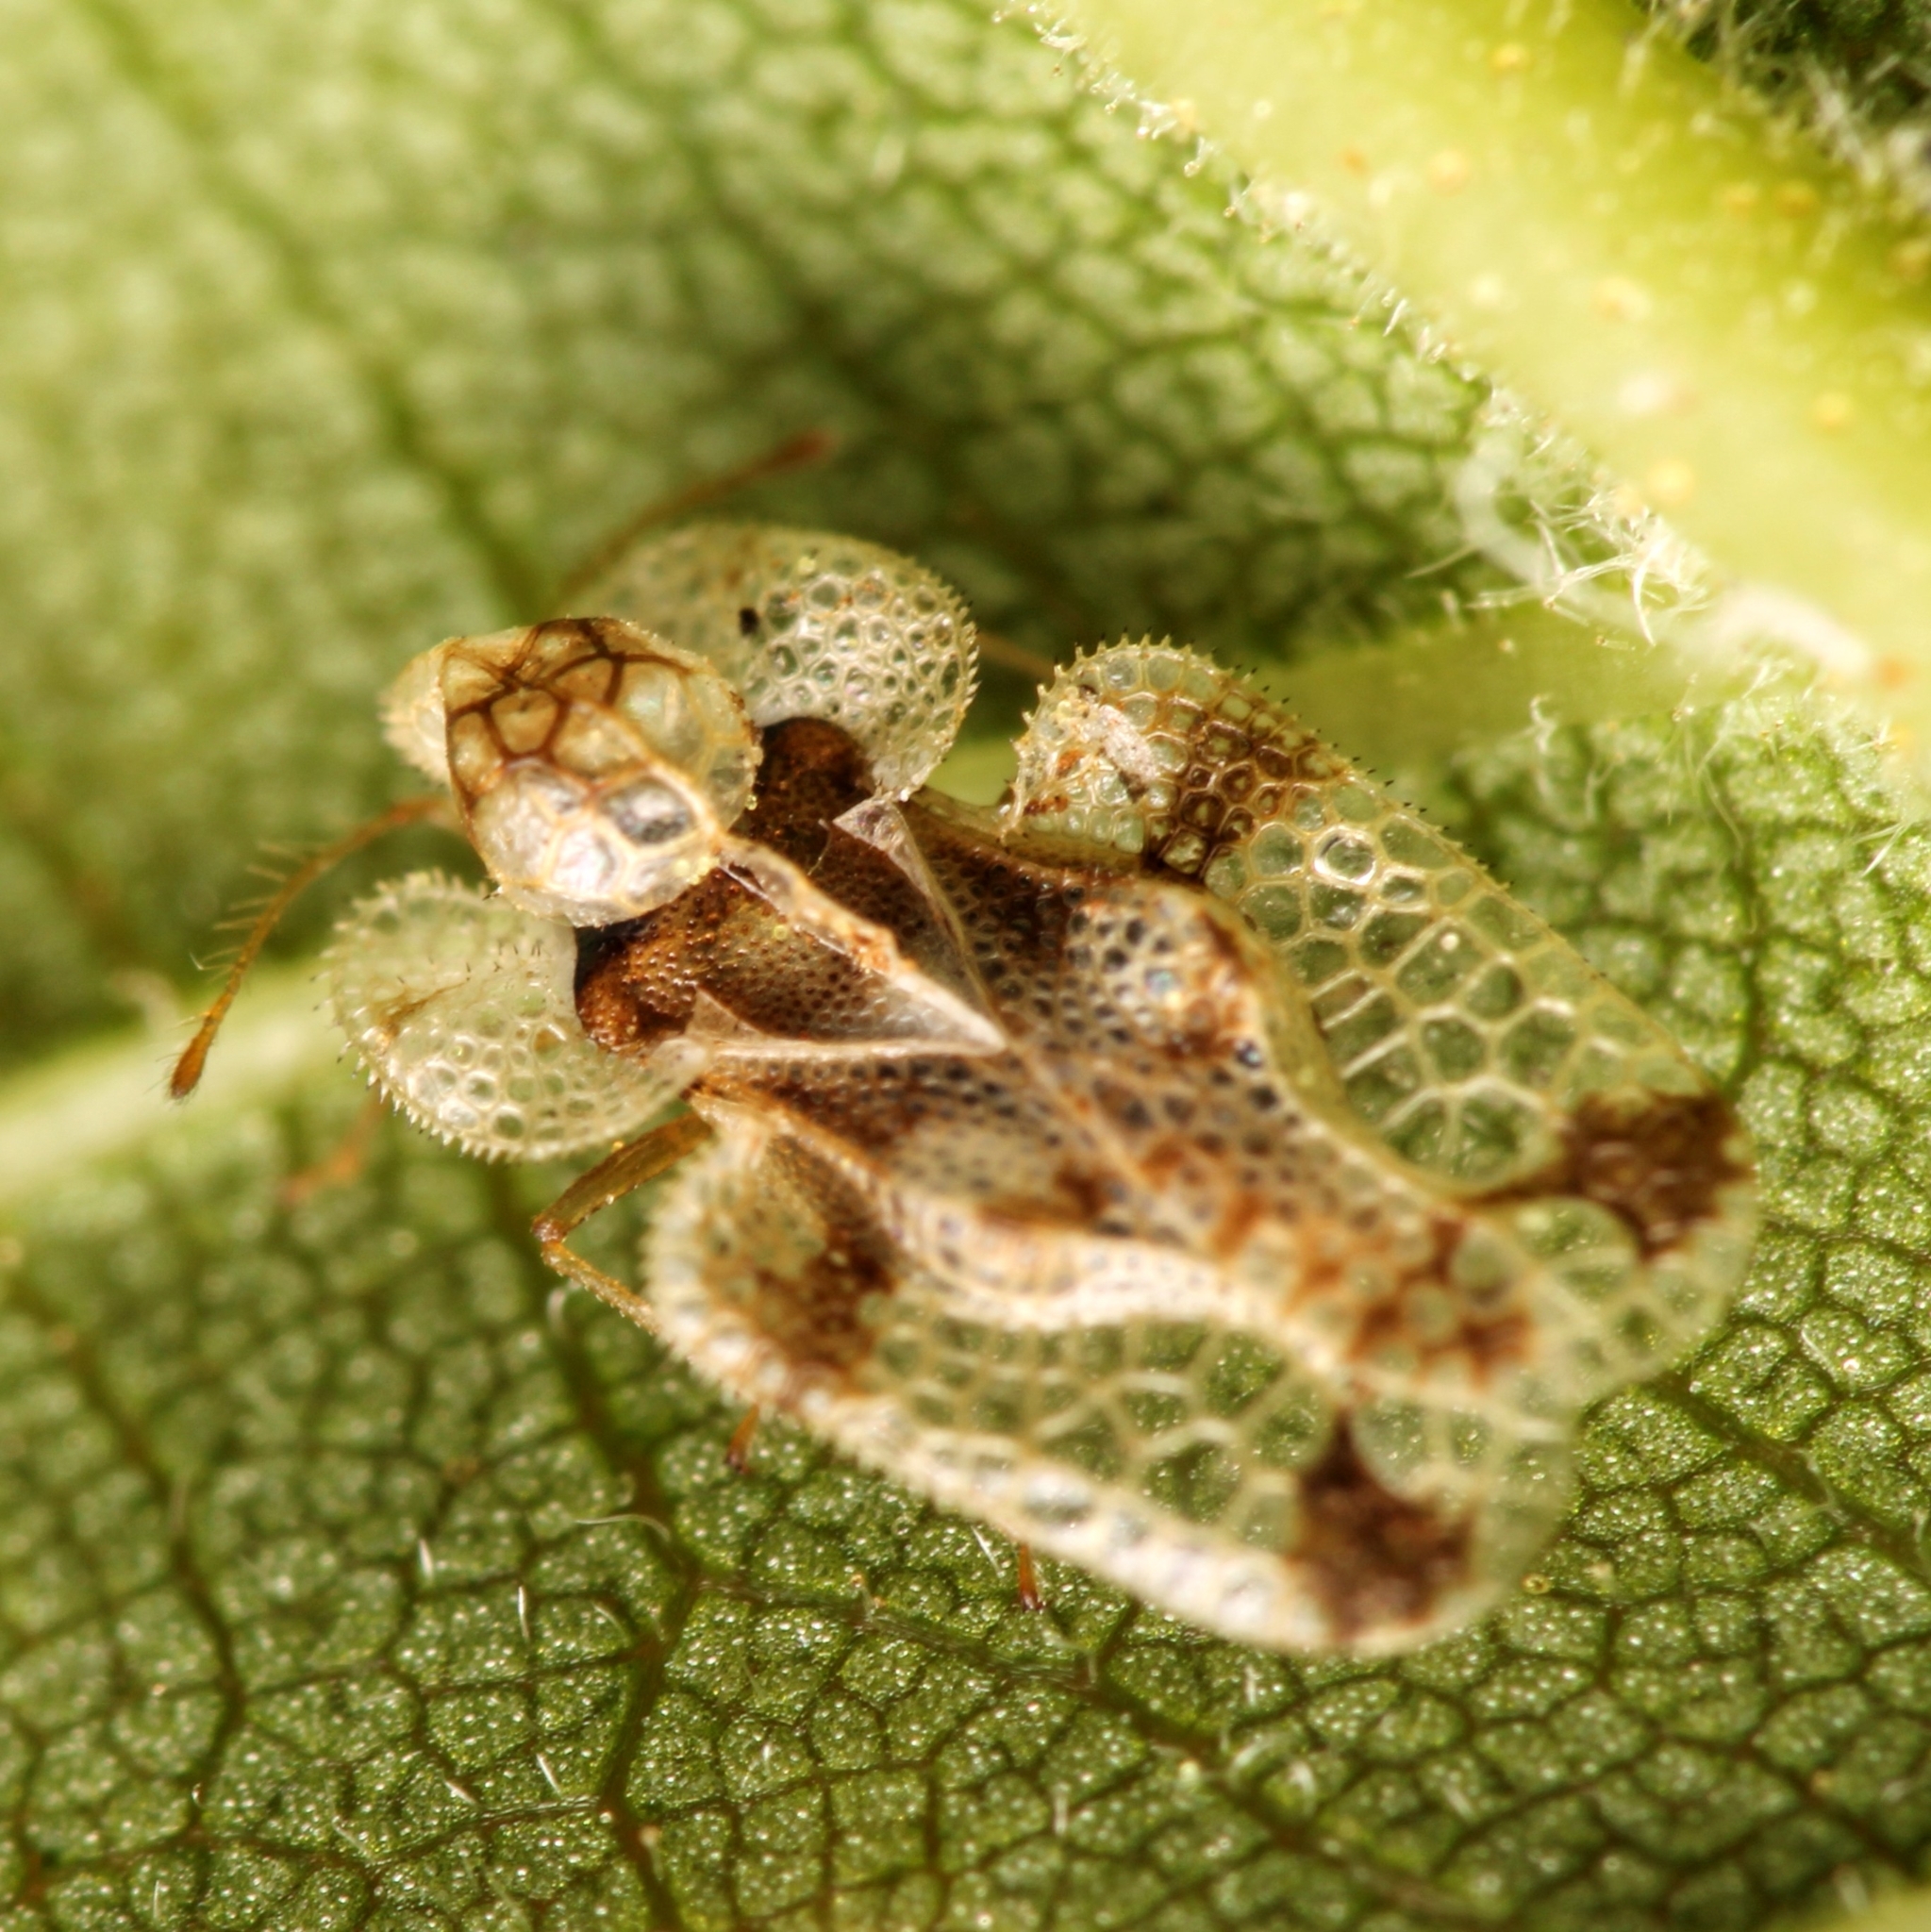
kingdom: Animalia
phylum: Arthropoda
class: Insecta
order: Hemiptera
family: Tingidae
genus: Corythucha
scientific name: Corythucha juglandis
